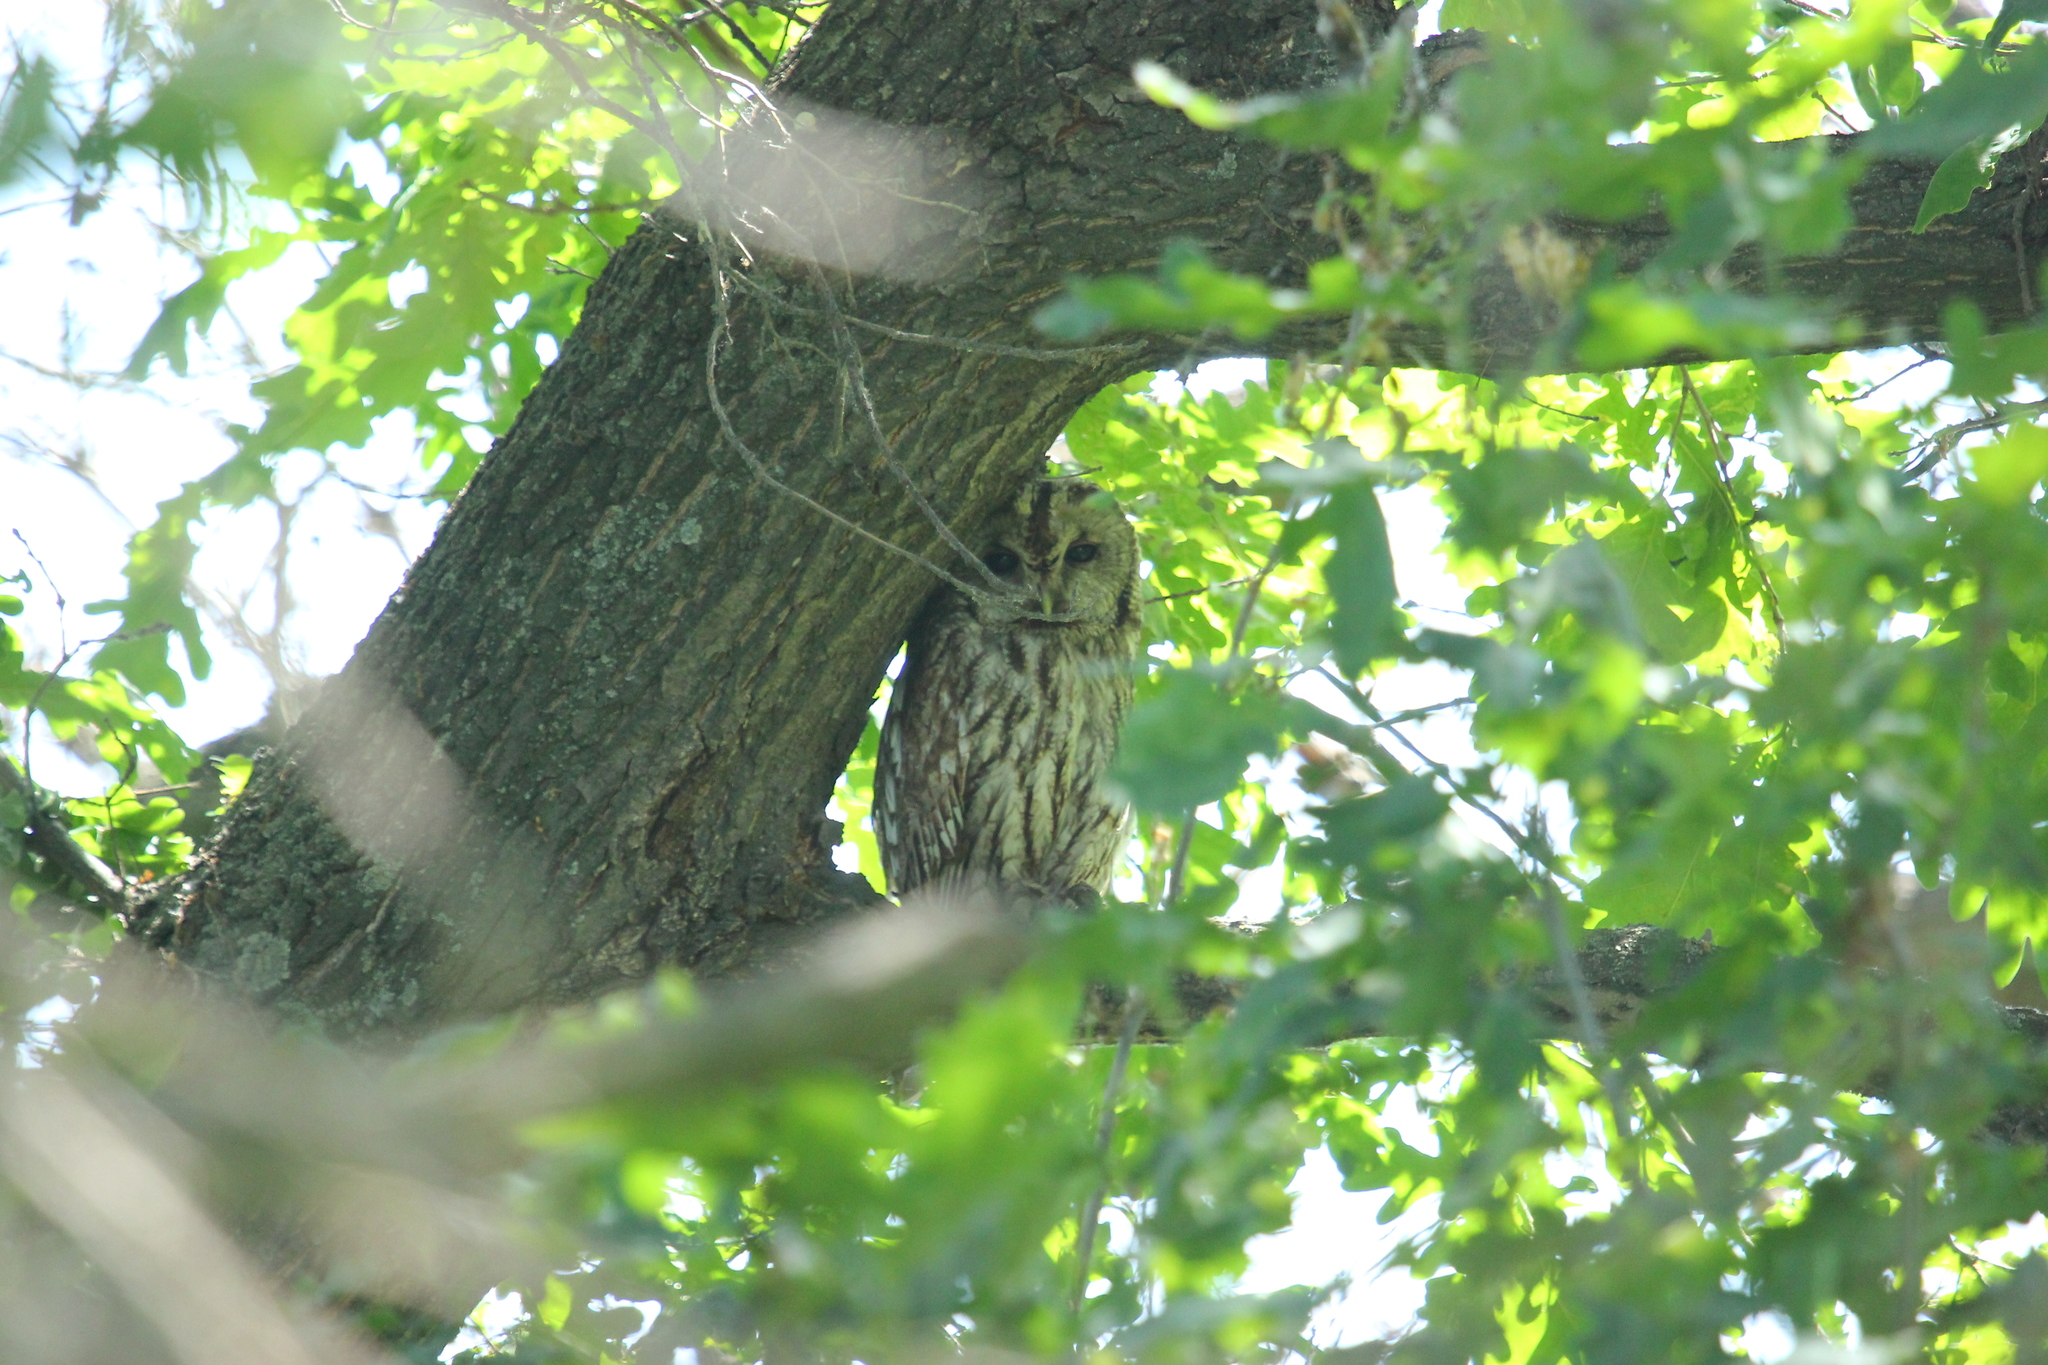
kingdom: Animalia
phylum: Chordata
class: Aves
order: Strigiformes
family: Strigidae
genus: Strix
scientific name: Strix aluco
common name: Tawny owl
